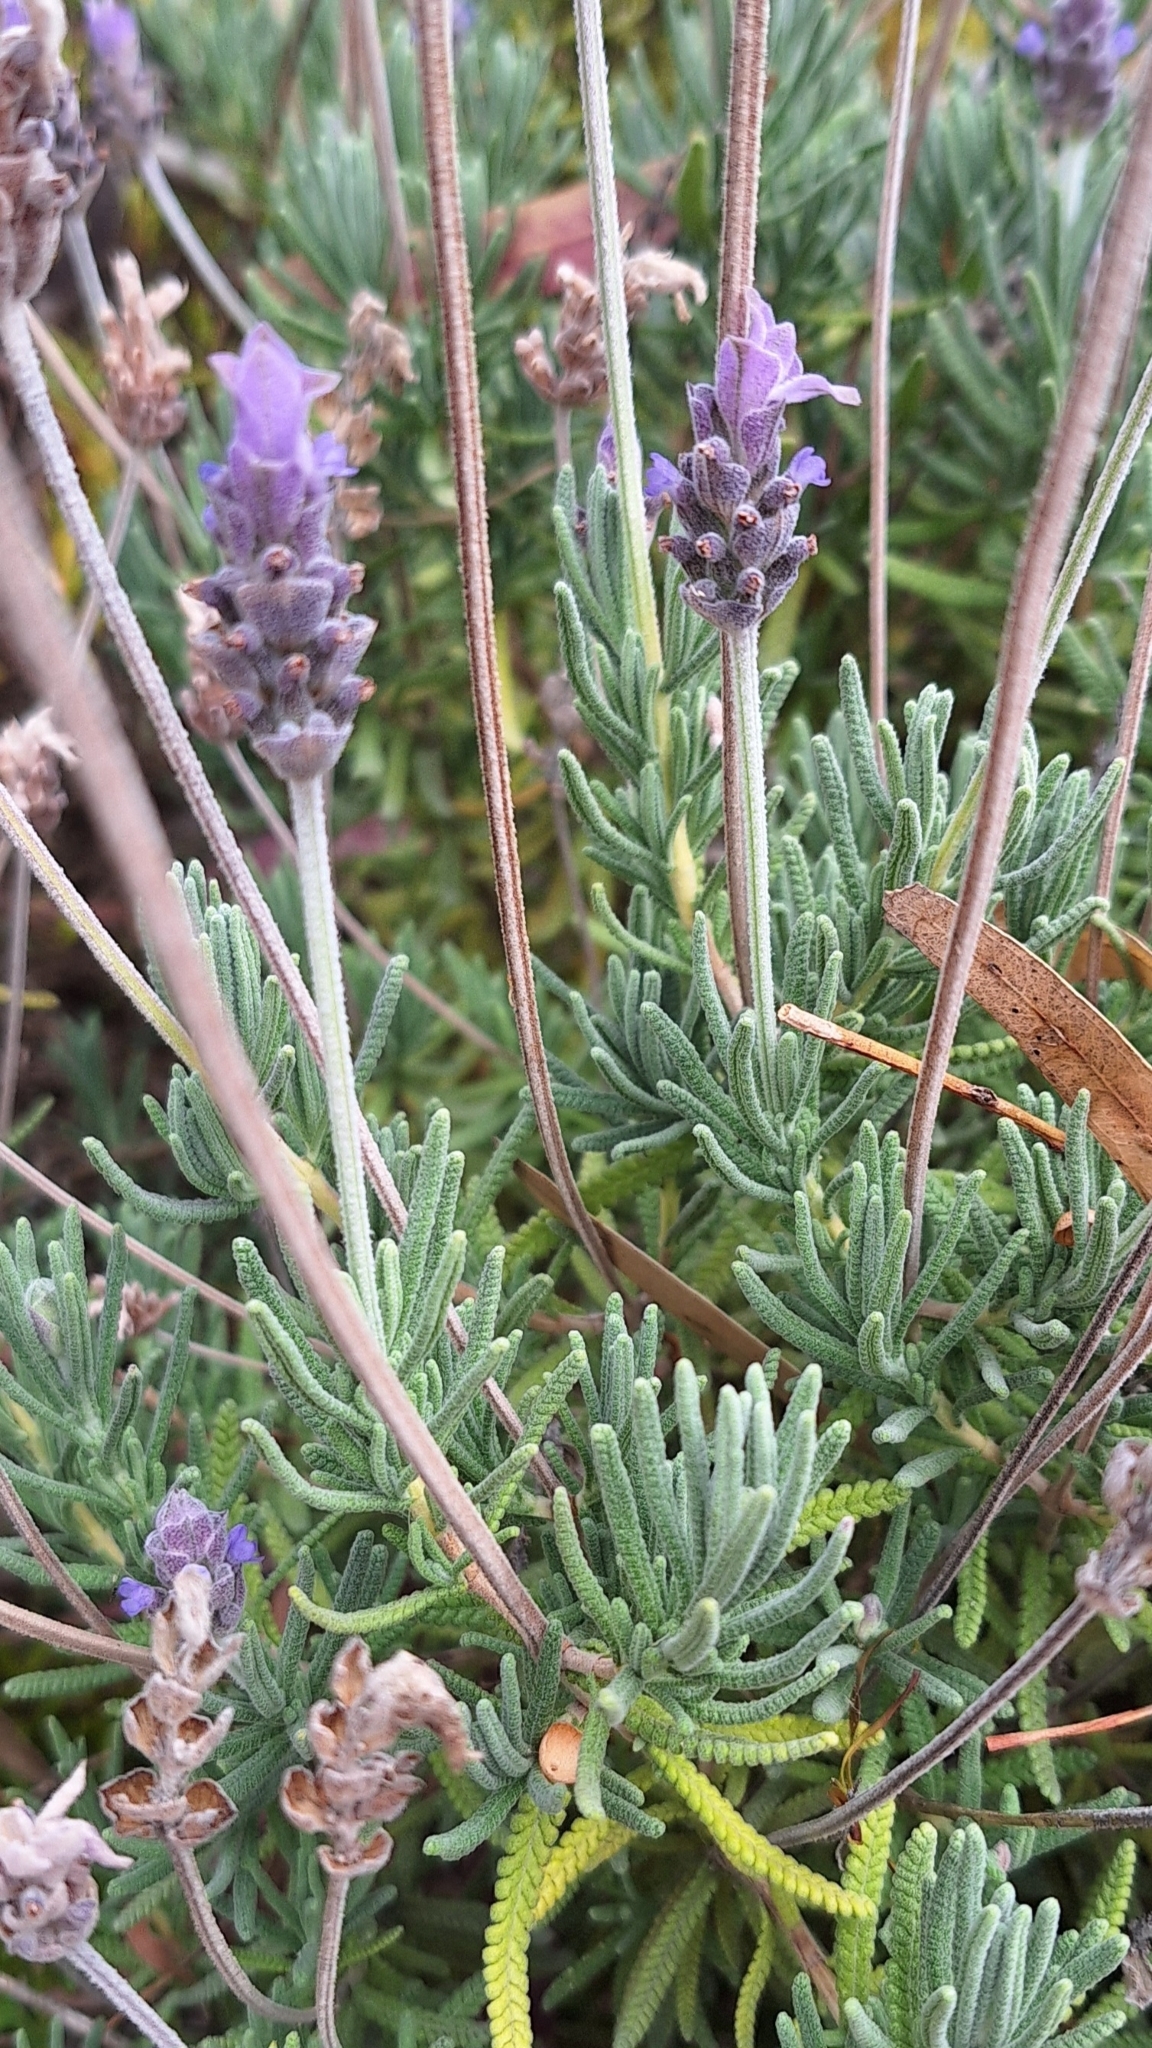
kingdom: Plantae
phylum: Tracheophyta
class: Magnoliopsida
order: Lamiales
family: Lamiaceae
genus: Lavandula
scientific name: Lavandula dentata
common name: French lavender
